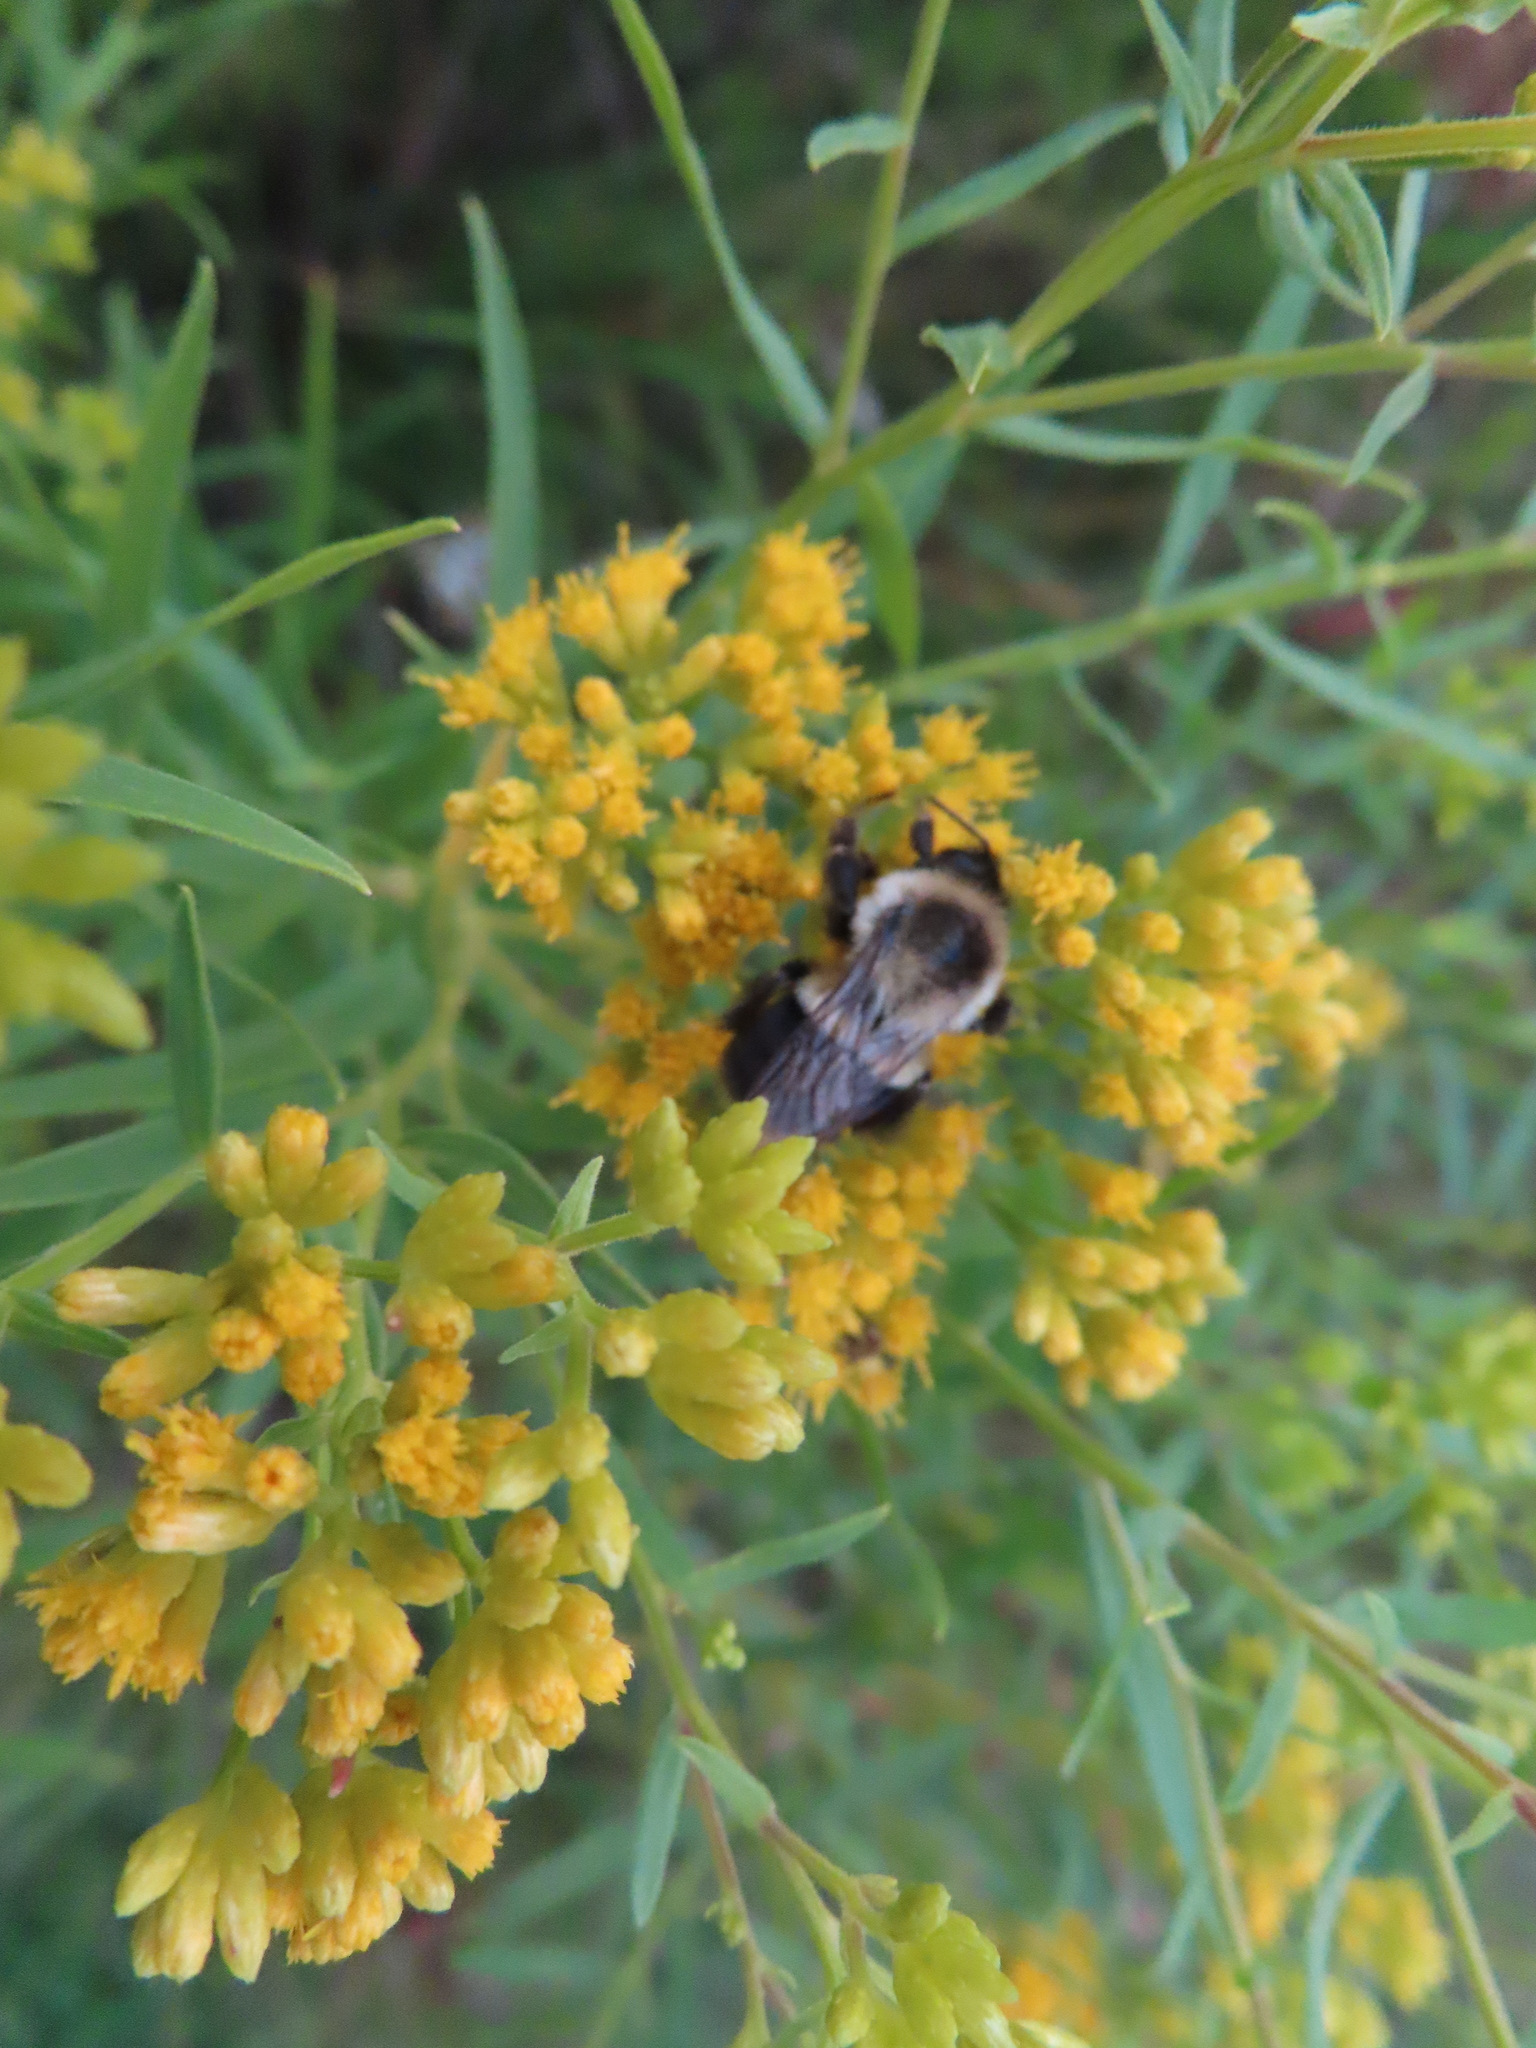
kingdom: Animalia
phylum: Arthropoda
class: Insecta
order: Hymenoptera
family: Apidae
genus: Bombus
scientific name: Bombus impatiens
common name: Common eastern bumble bee
